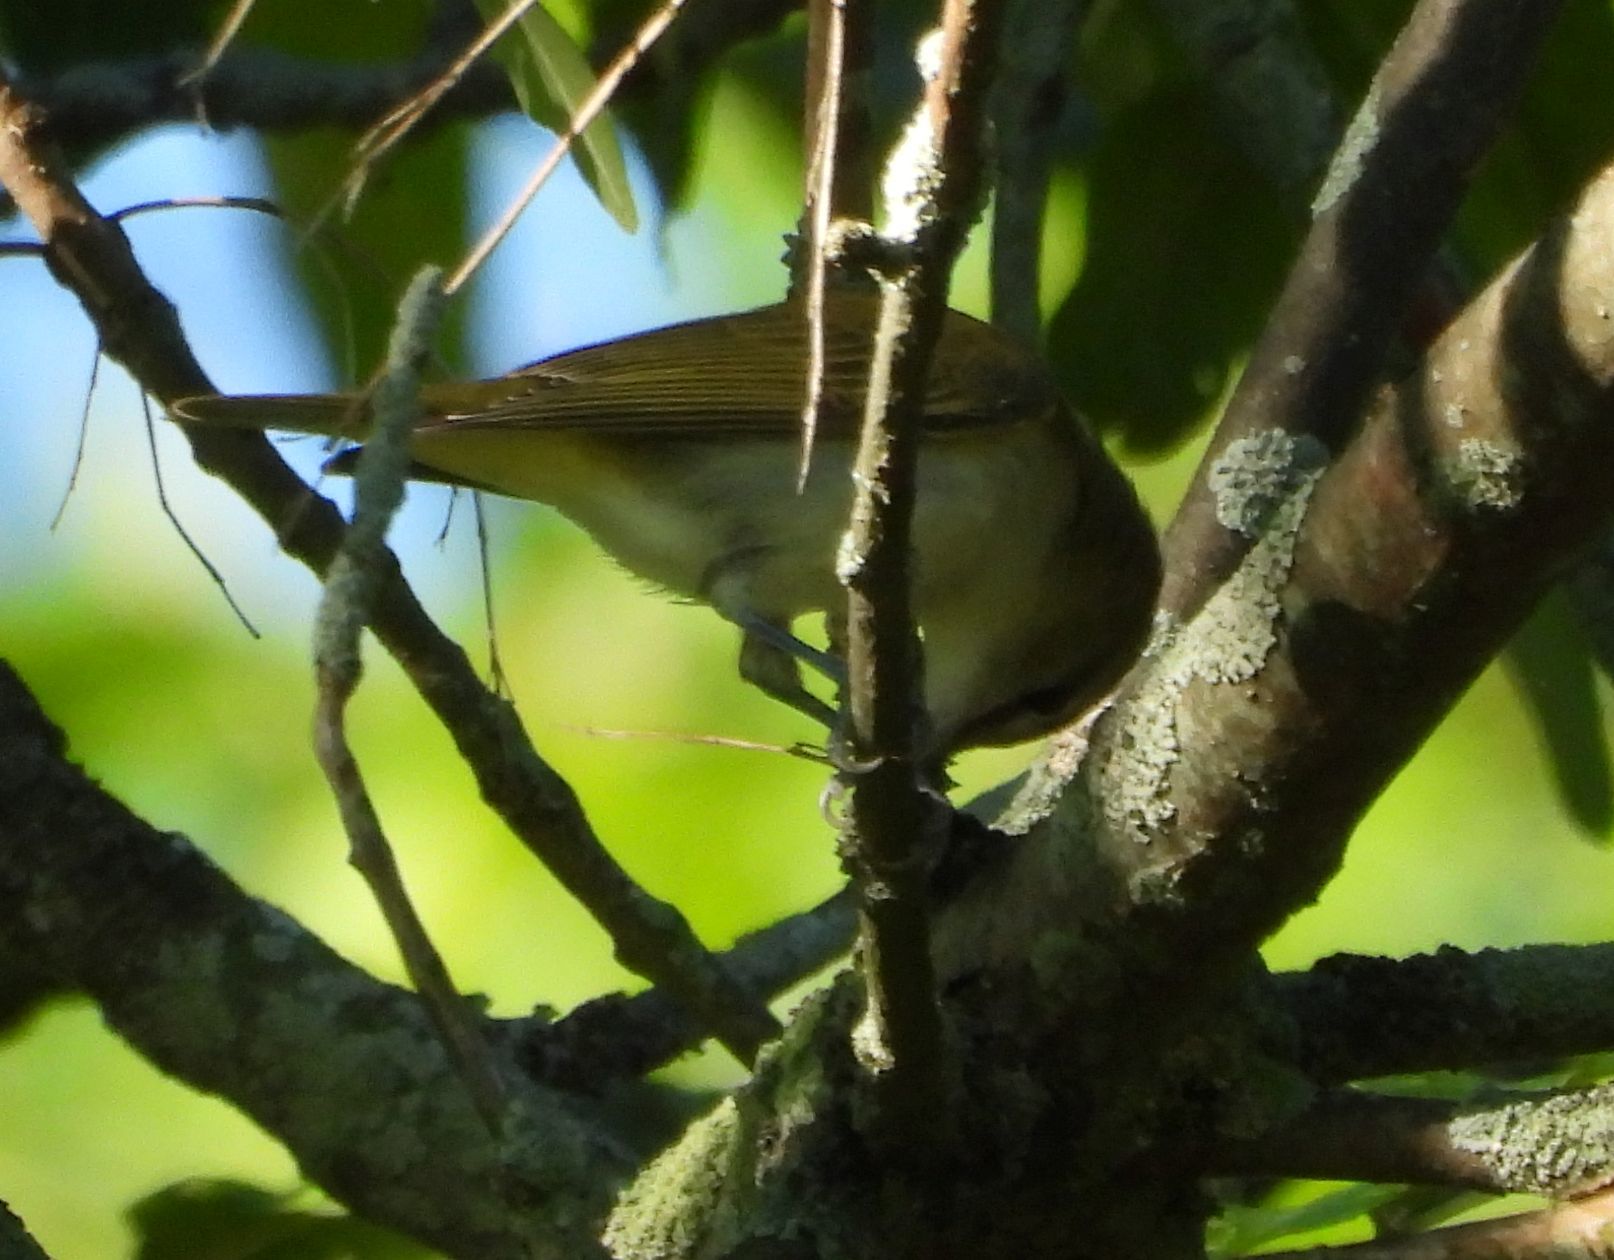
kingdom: Animalia
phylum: Chordata
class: Aves
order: Passeriformes
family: Vireonidae
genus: Vireo
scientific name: Vireo olivaceus
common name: Red-eyed vireo
